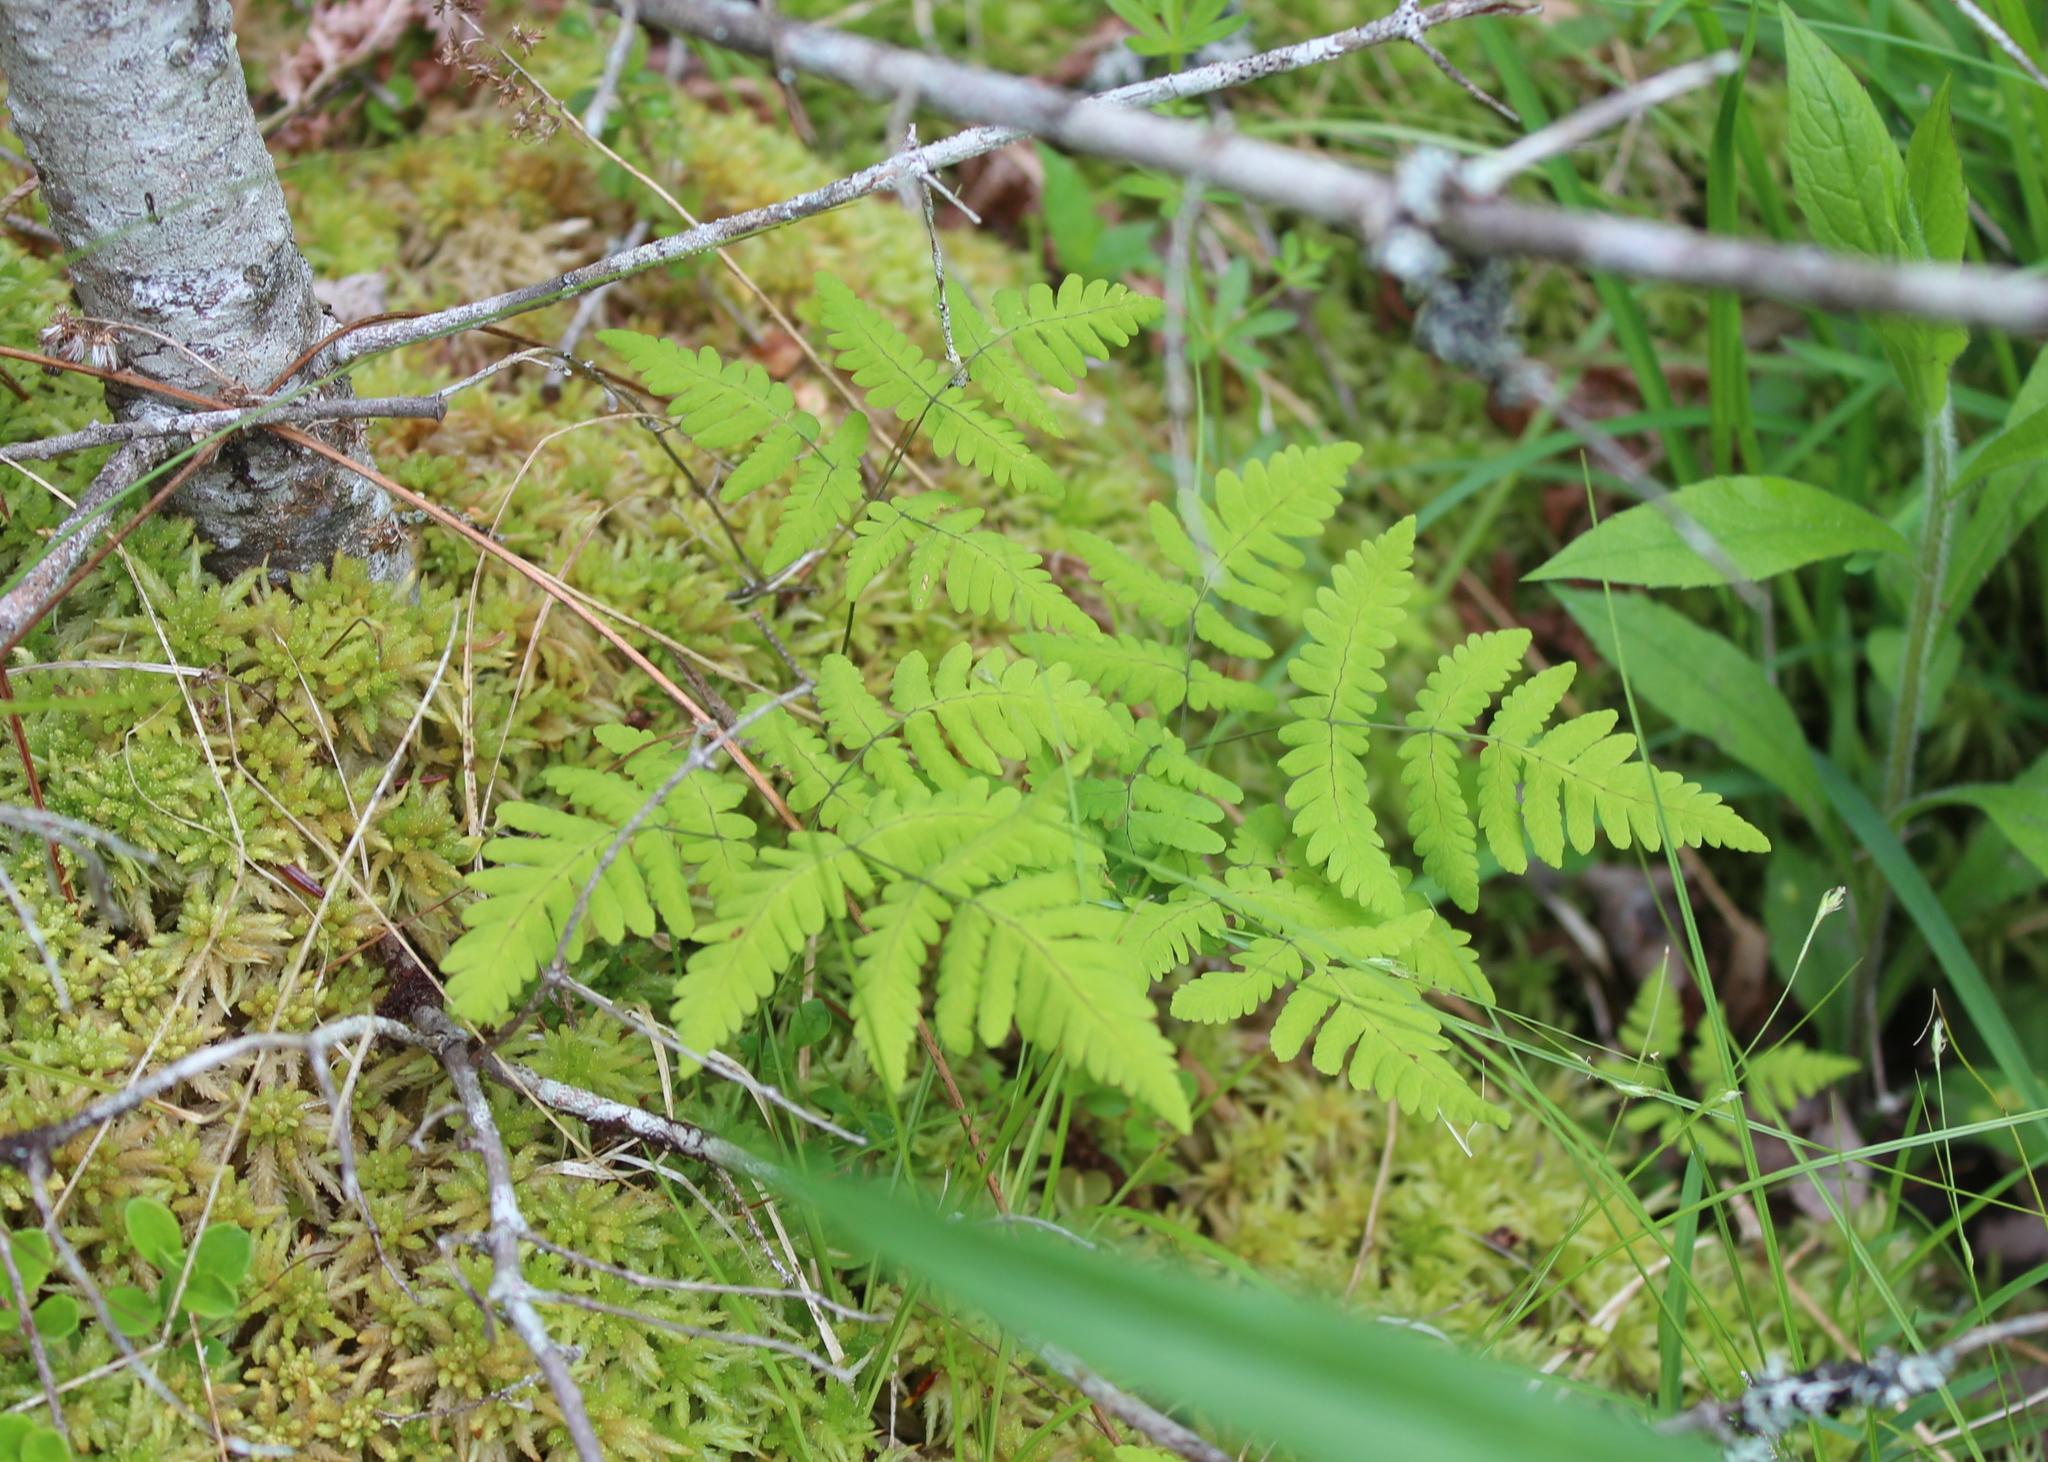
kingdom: Plantae
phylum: Tracheophyta
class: Polypodiopsida
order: Polypodiales
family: Cystopteridaceae
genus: Gymnocarpium
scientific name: Gymnocarpium dryopteris
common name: Oak fern
